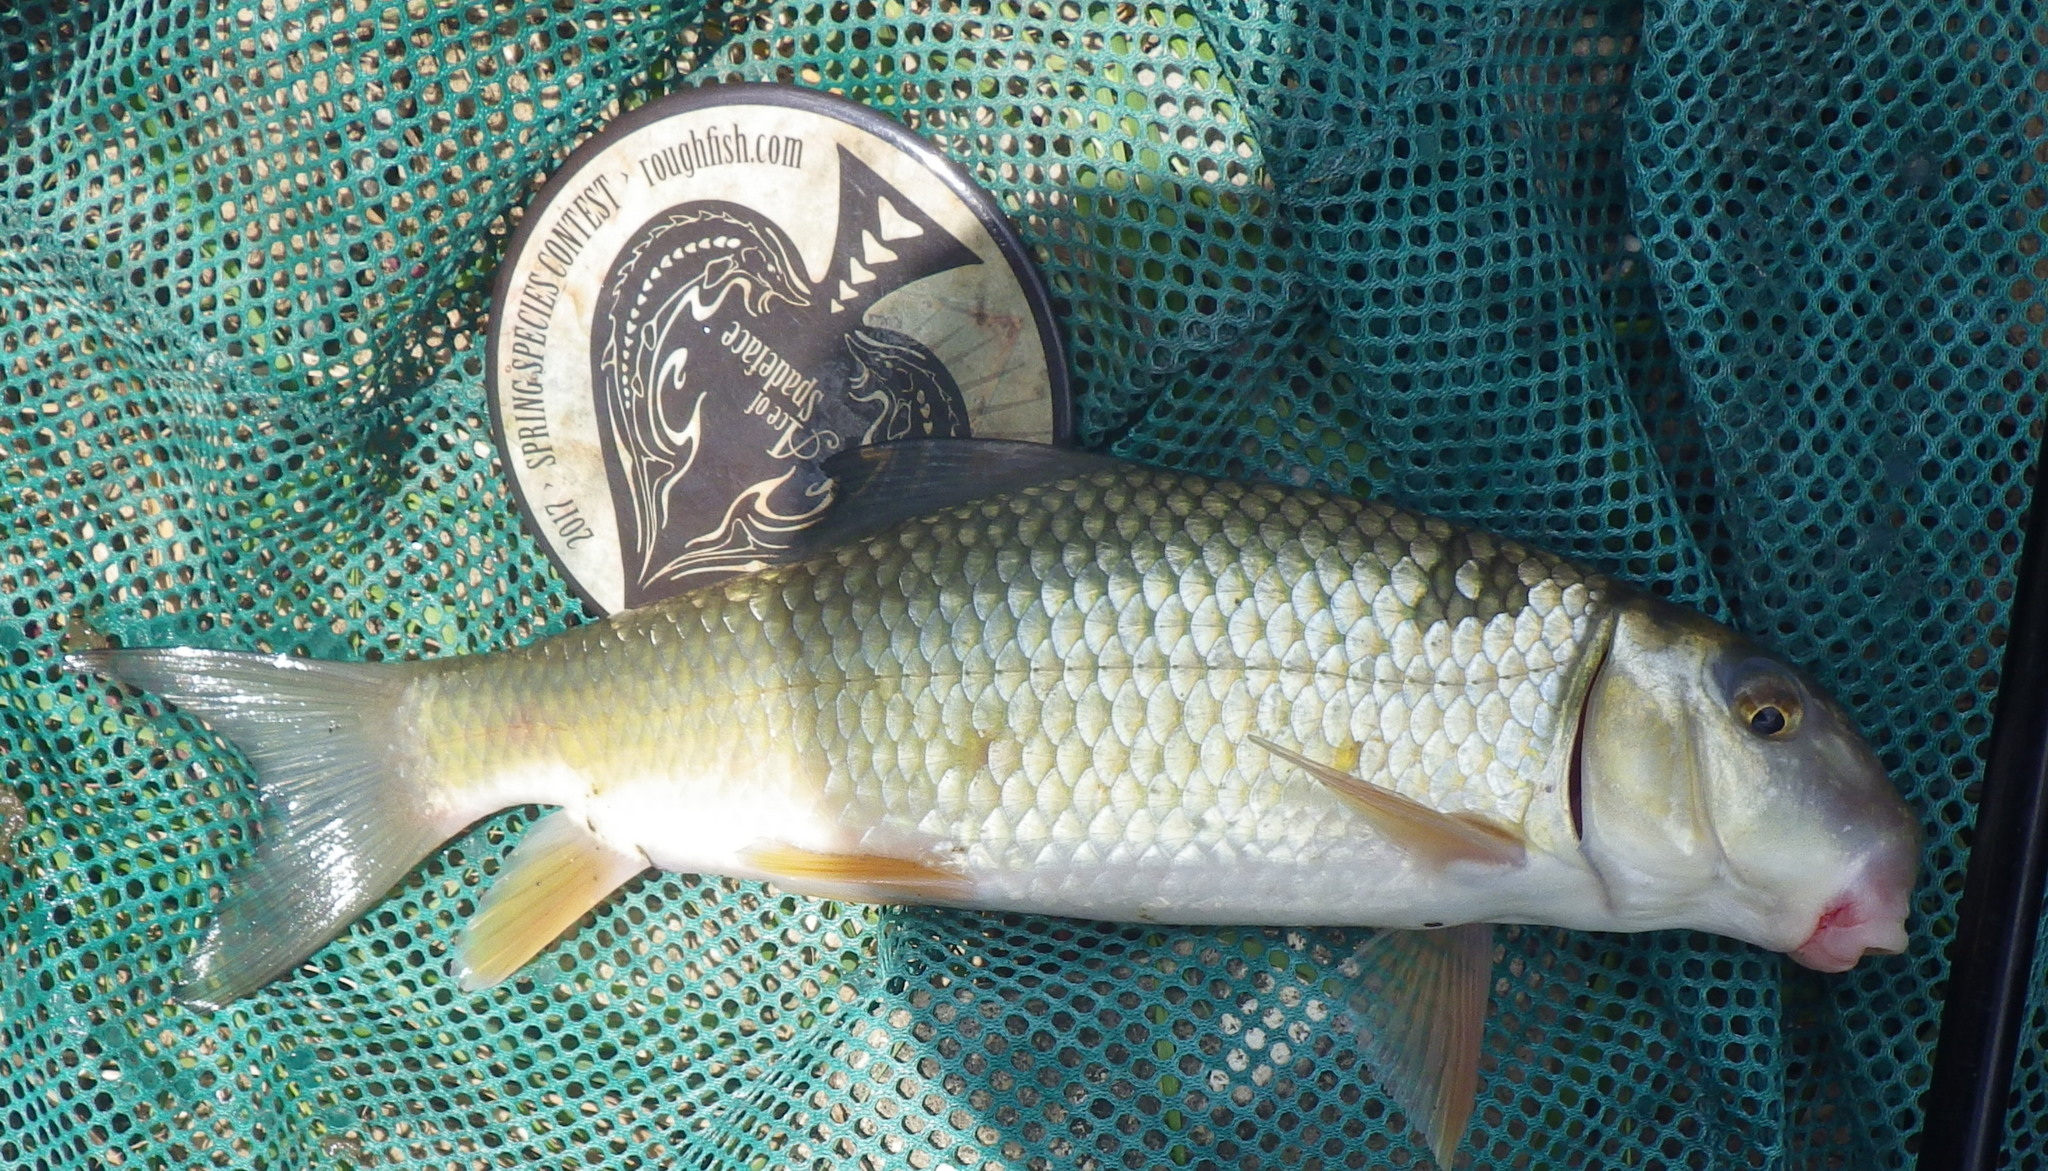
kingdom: Animalia
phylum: Chordata
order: Cypriniformes
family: Catostomidae
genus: Moxostoma
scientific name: Moxostoma erythrurum
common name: Golden redhorse
